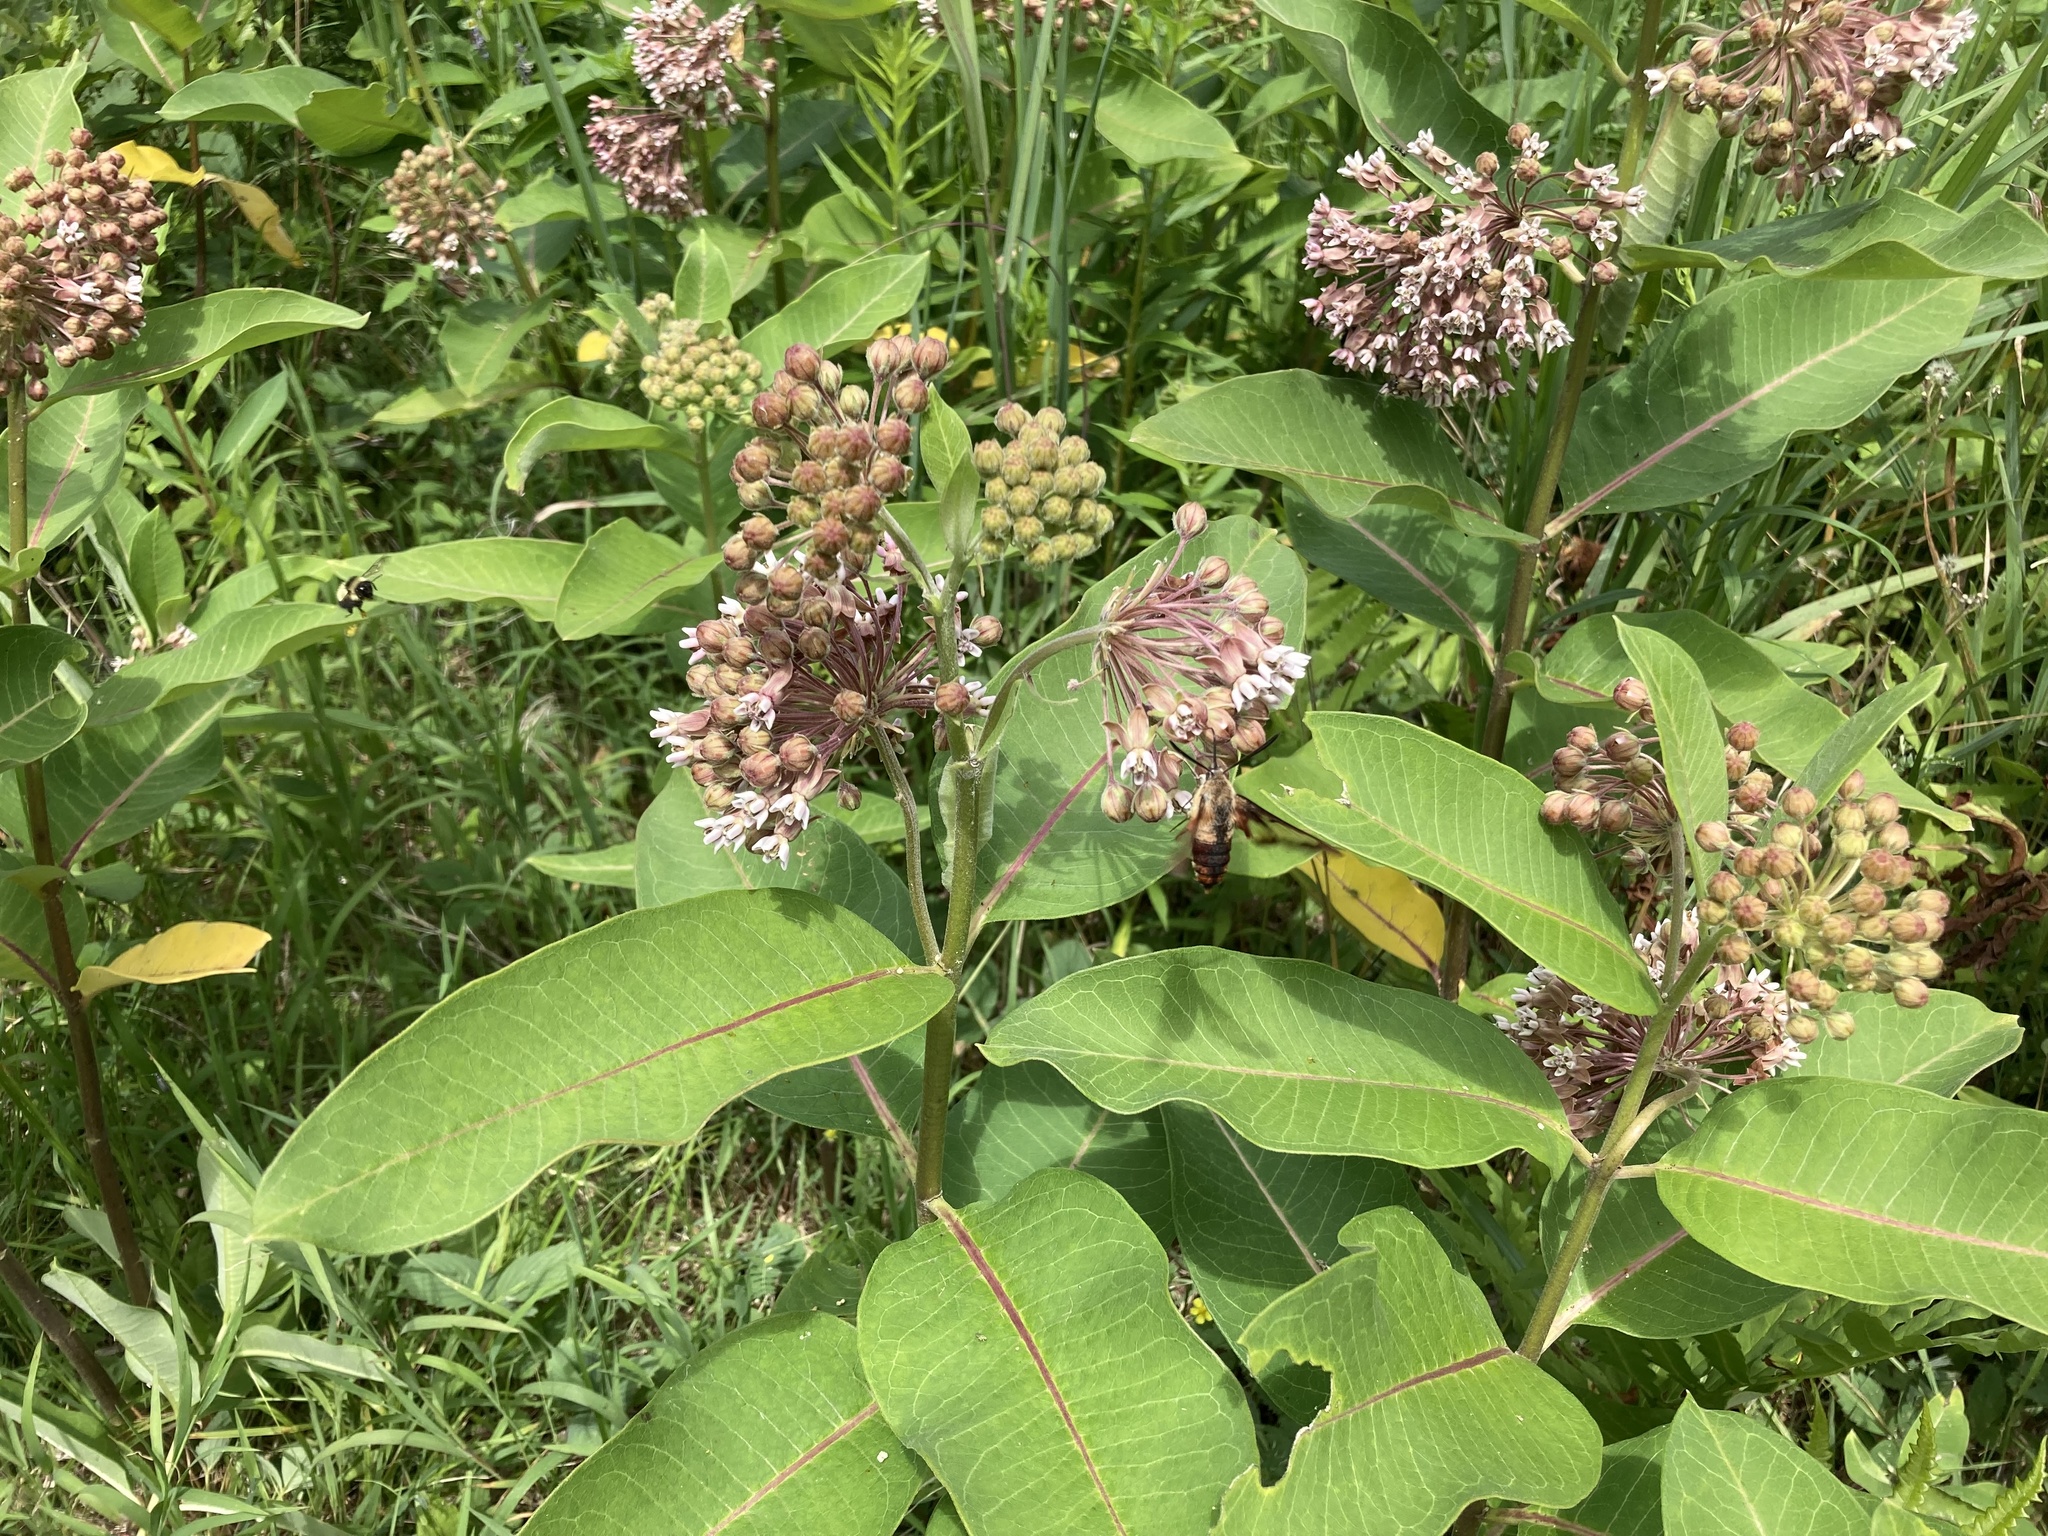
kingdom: Animalia
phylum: Arthropoda
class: Insecta
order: Lepidoptera
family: Sphingidae
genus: Hemaris
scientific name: Hemaris thysbe
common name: Common clear-wing
